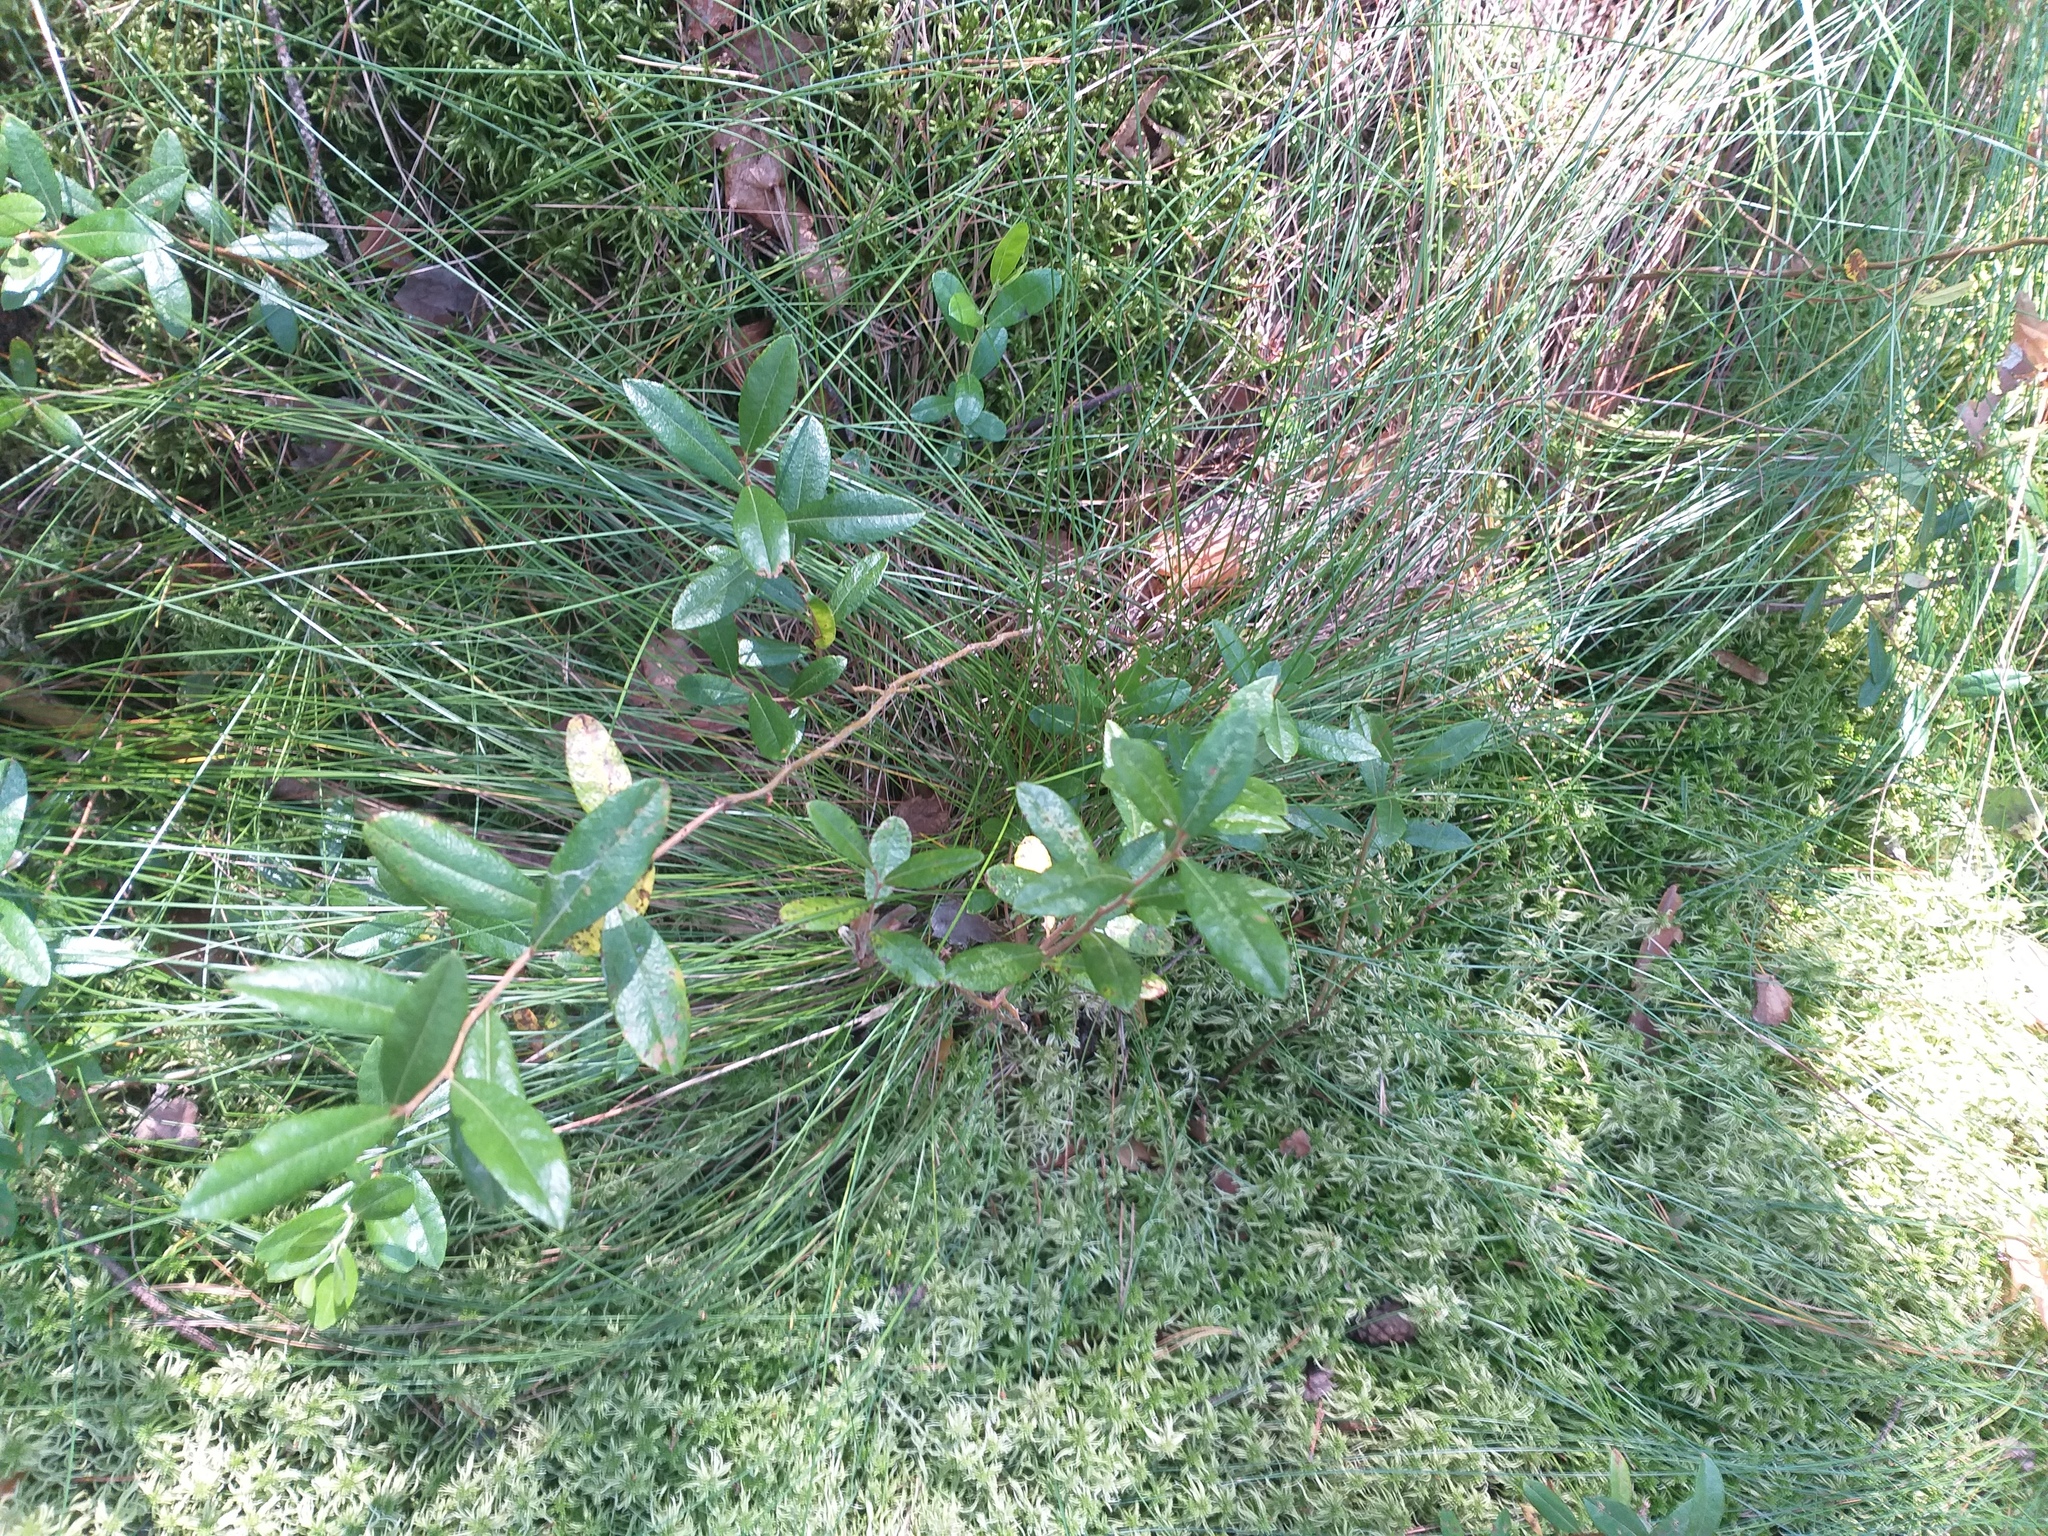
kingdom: Plantae
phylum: Tracheophyta
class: Magnoliopsida
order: Ericales
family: Ericaceae
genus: Chamaedaphne
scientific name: Chamaedaphne calyculata
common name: Leatherleaf
